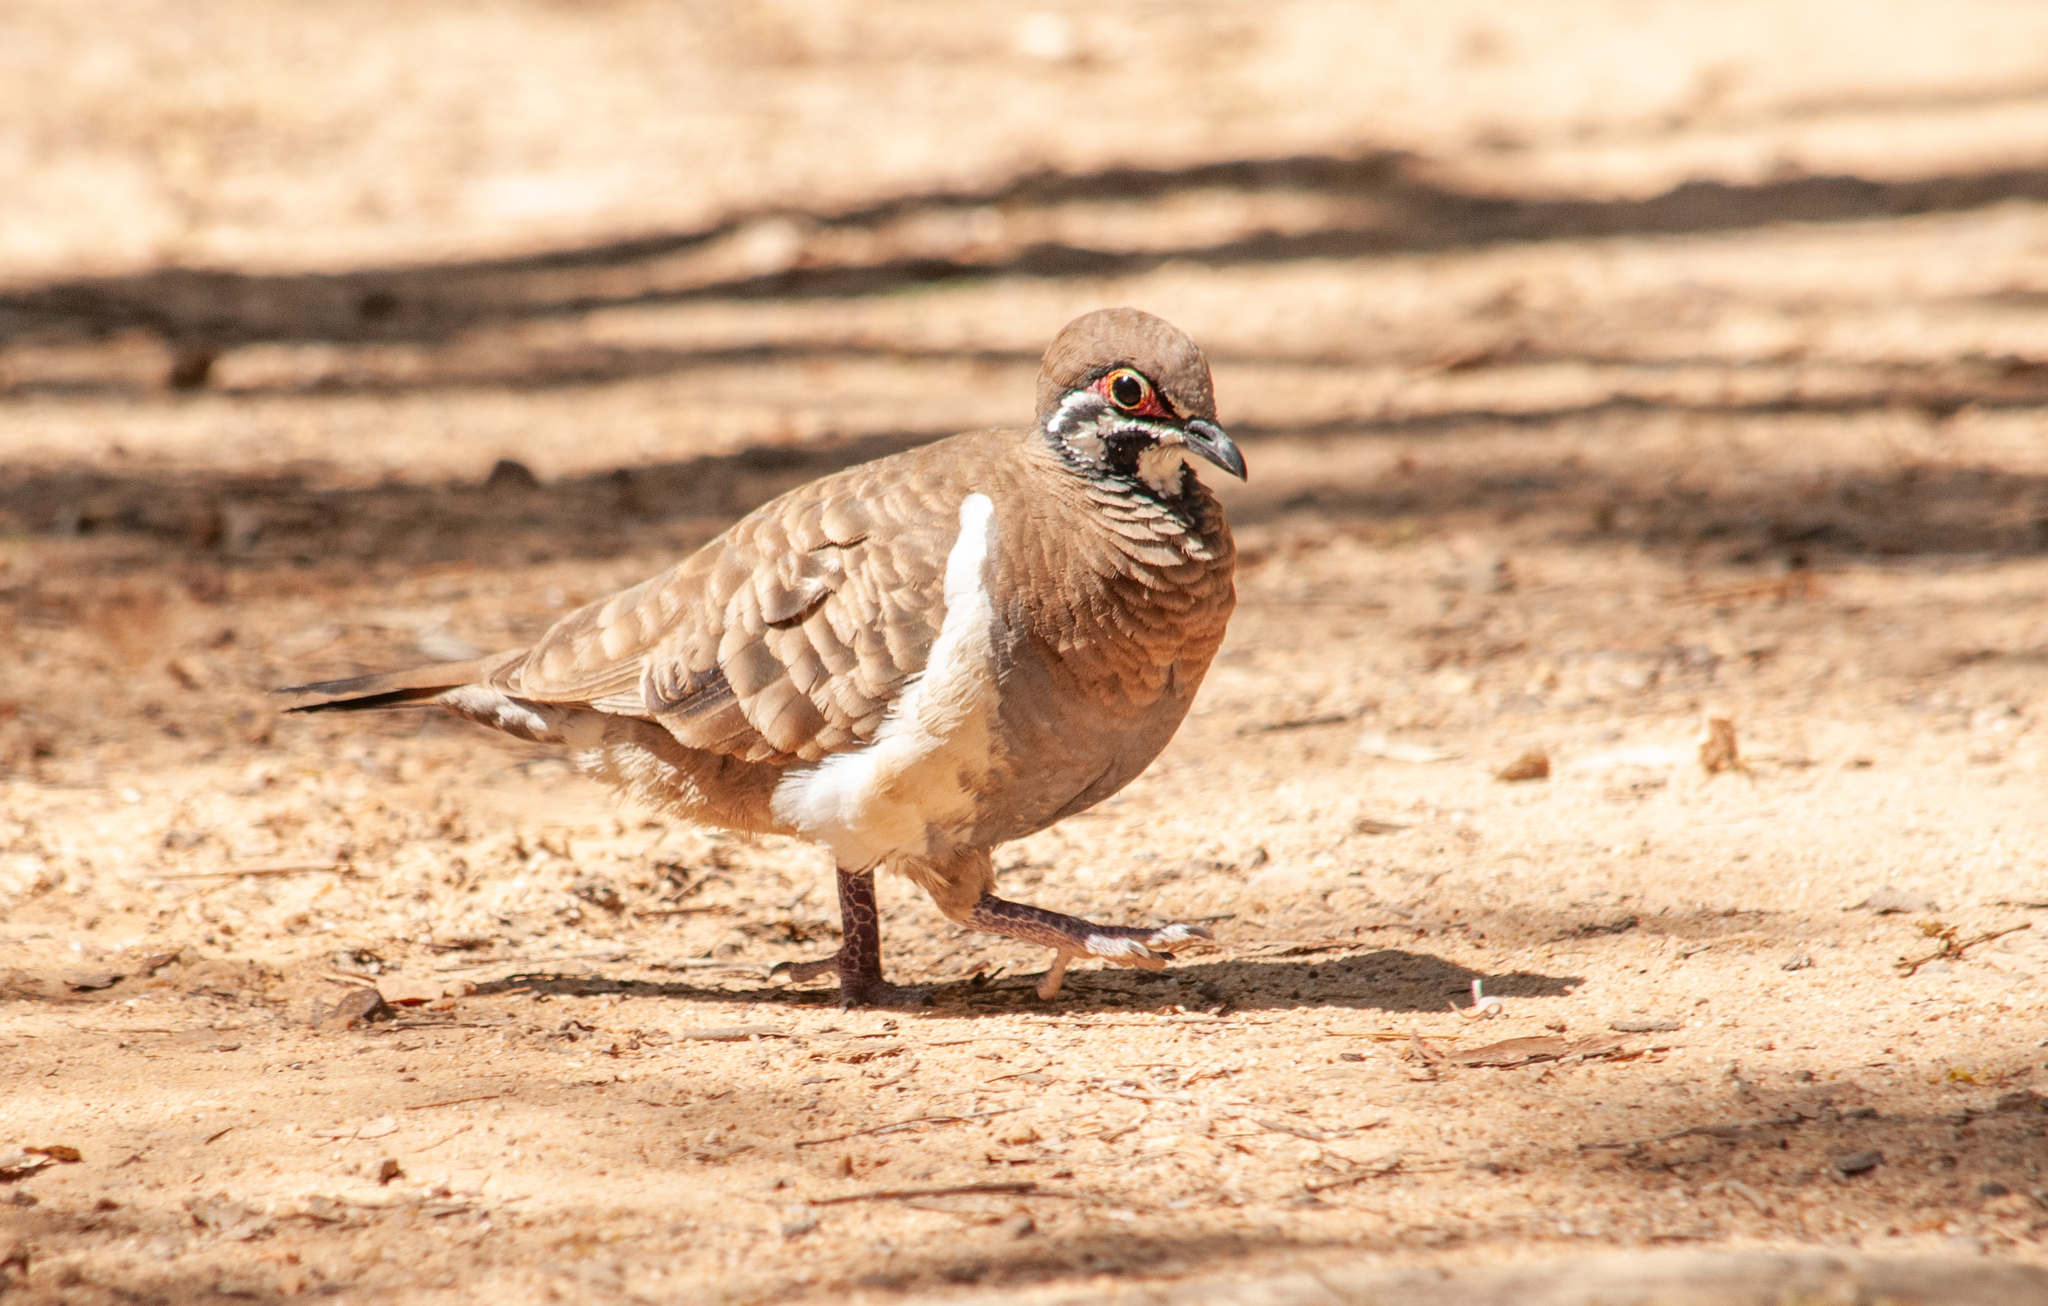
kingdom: Animalia
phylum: Chordata
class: Aves
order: Columbiformes
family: Columbidae
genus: Geophaps
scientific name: Geophaps scripta
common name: Squatter pigeon
